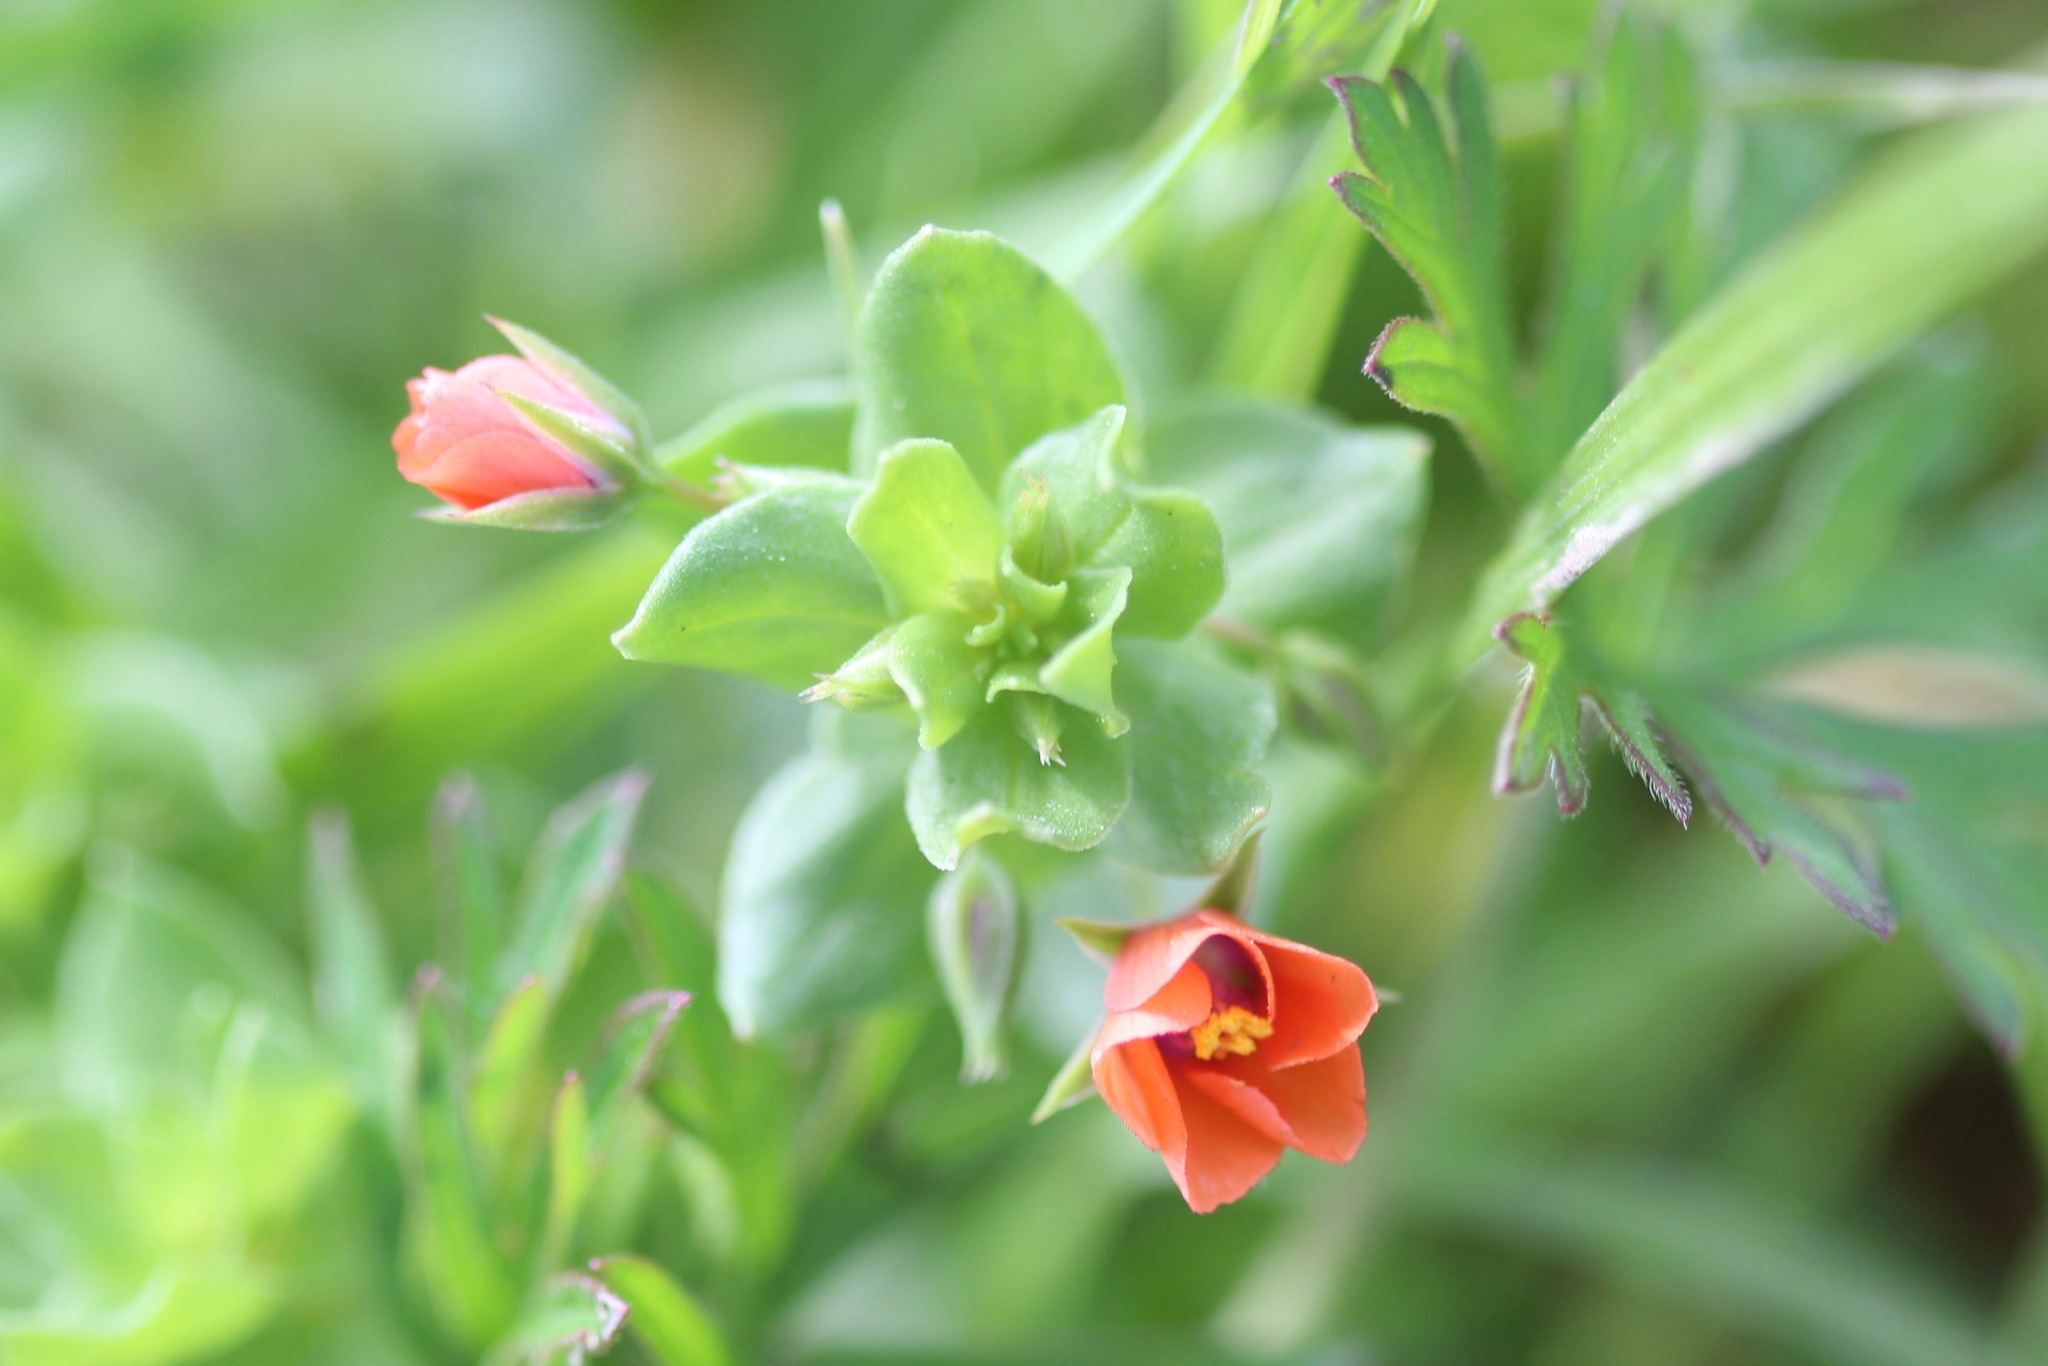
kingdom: Plantae
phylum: Tracheophyta
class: Magnoliopsida
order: Ericales
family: Primulaceae
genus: Lysimachia
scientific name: Lysimachia arvensis
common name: Scarlet pimpernel
